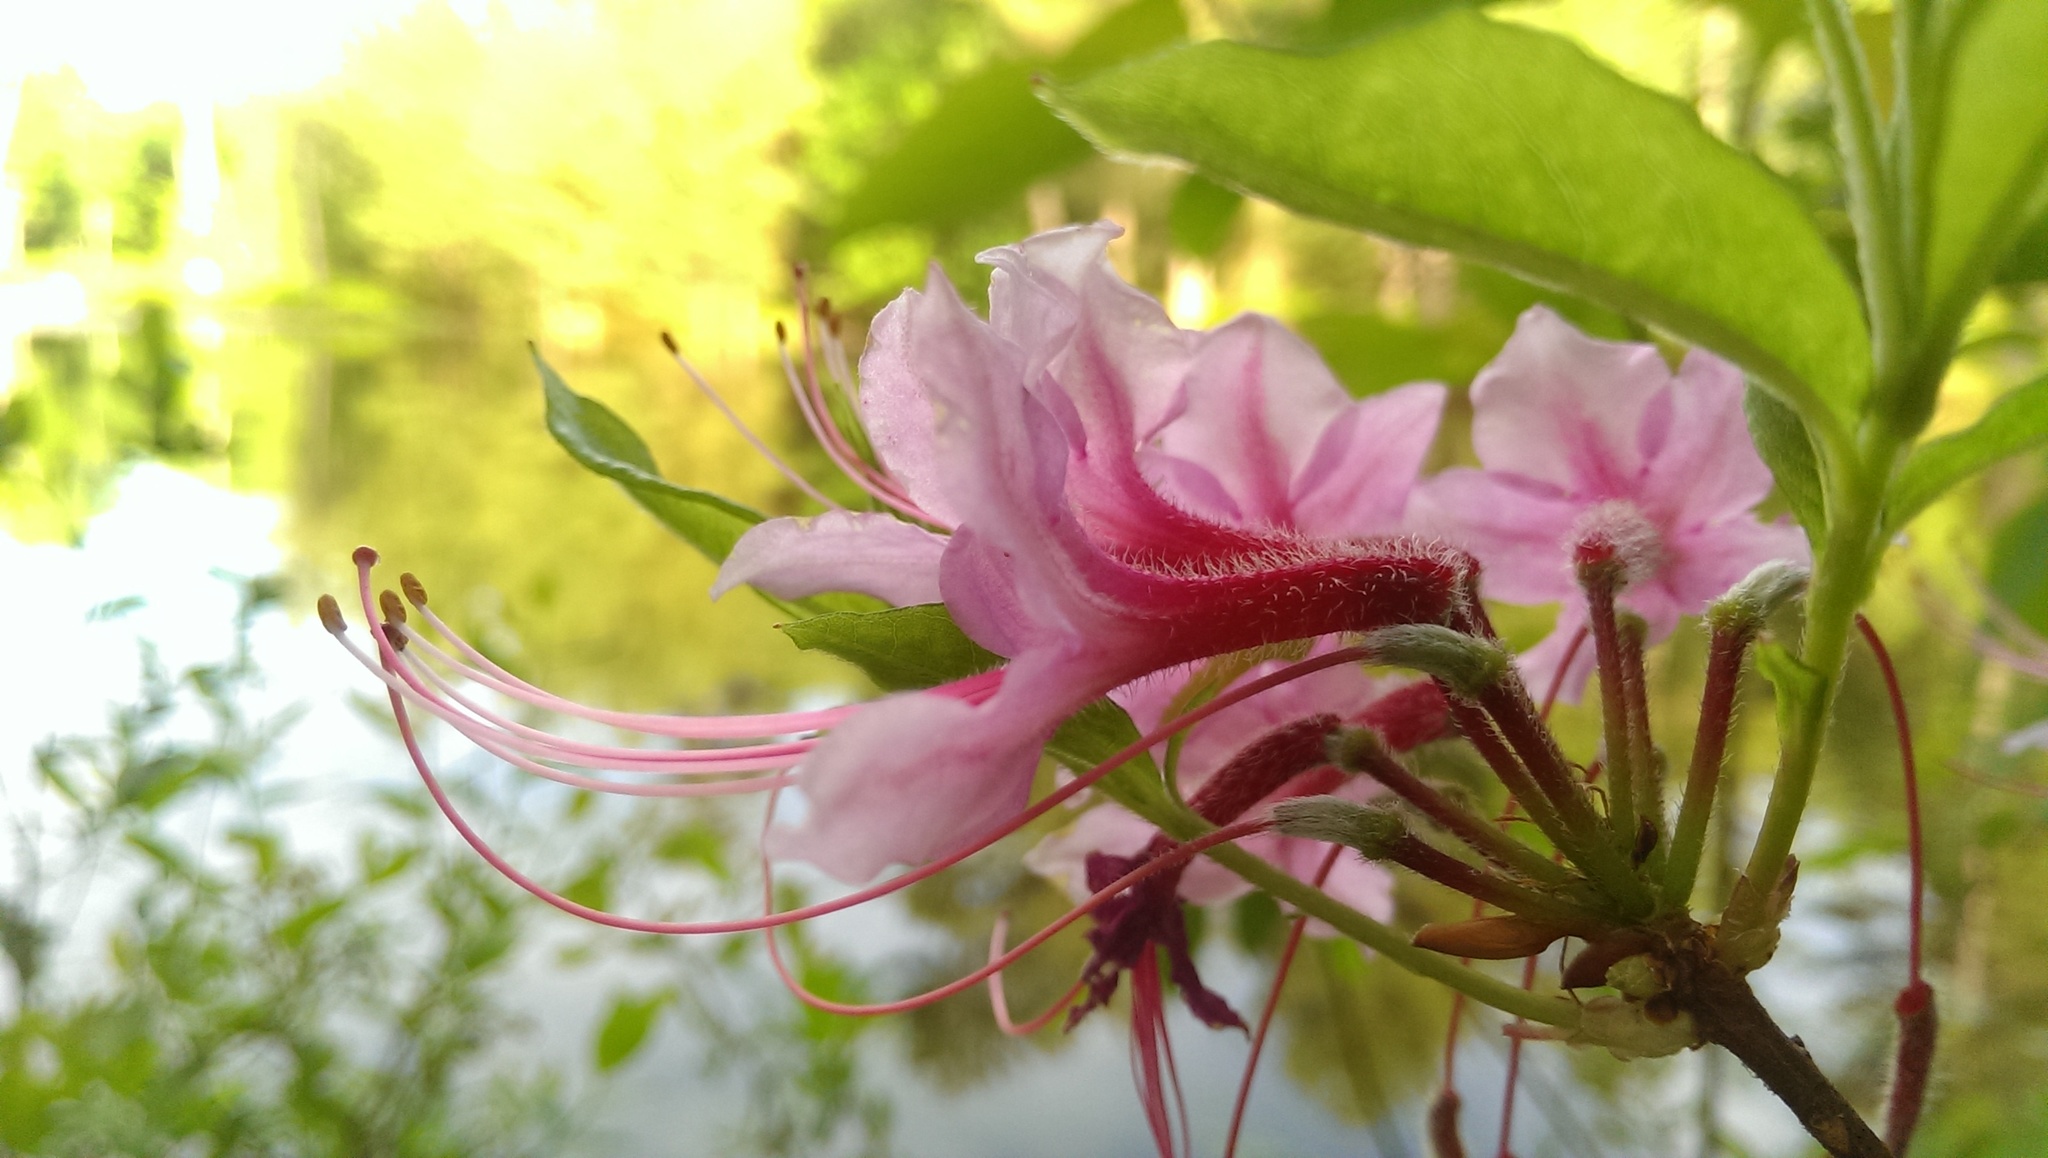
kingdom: Plantae
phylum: Tracheophyta
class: Magnoliopsida
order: Ericales
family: Ericaceae
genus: Rhododendron
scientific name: Rhododendron periclymenoides
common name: Election-pink
